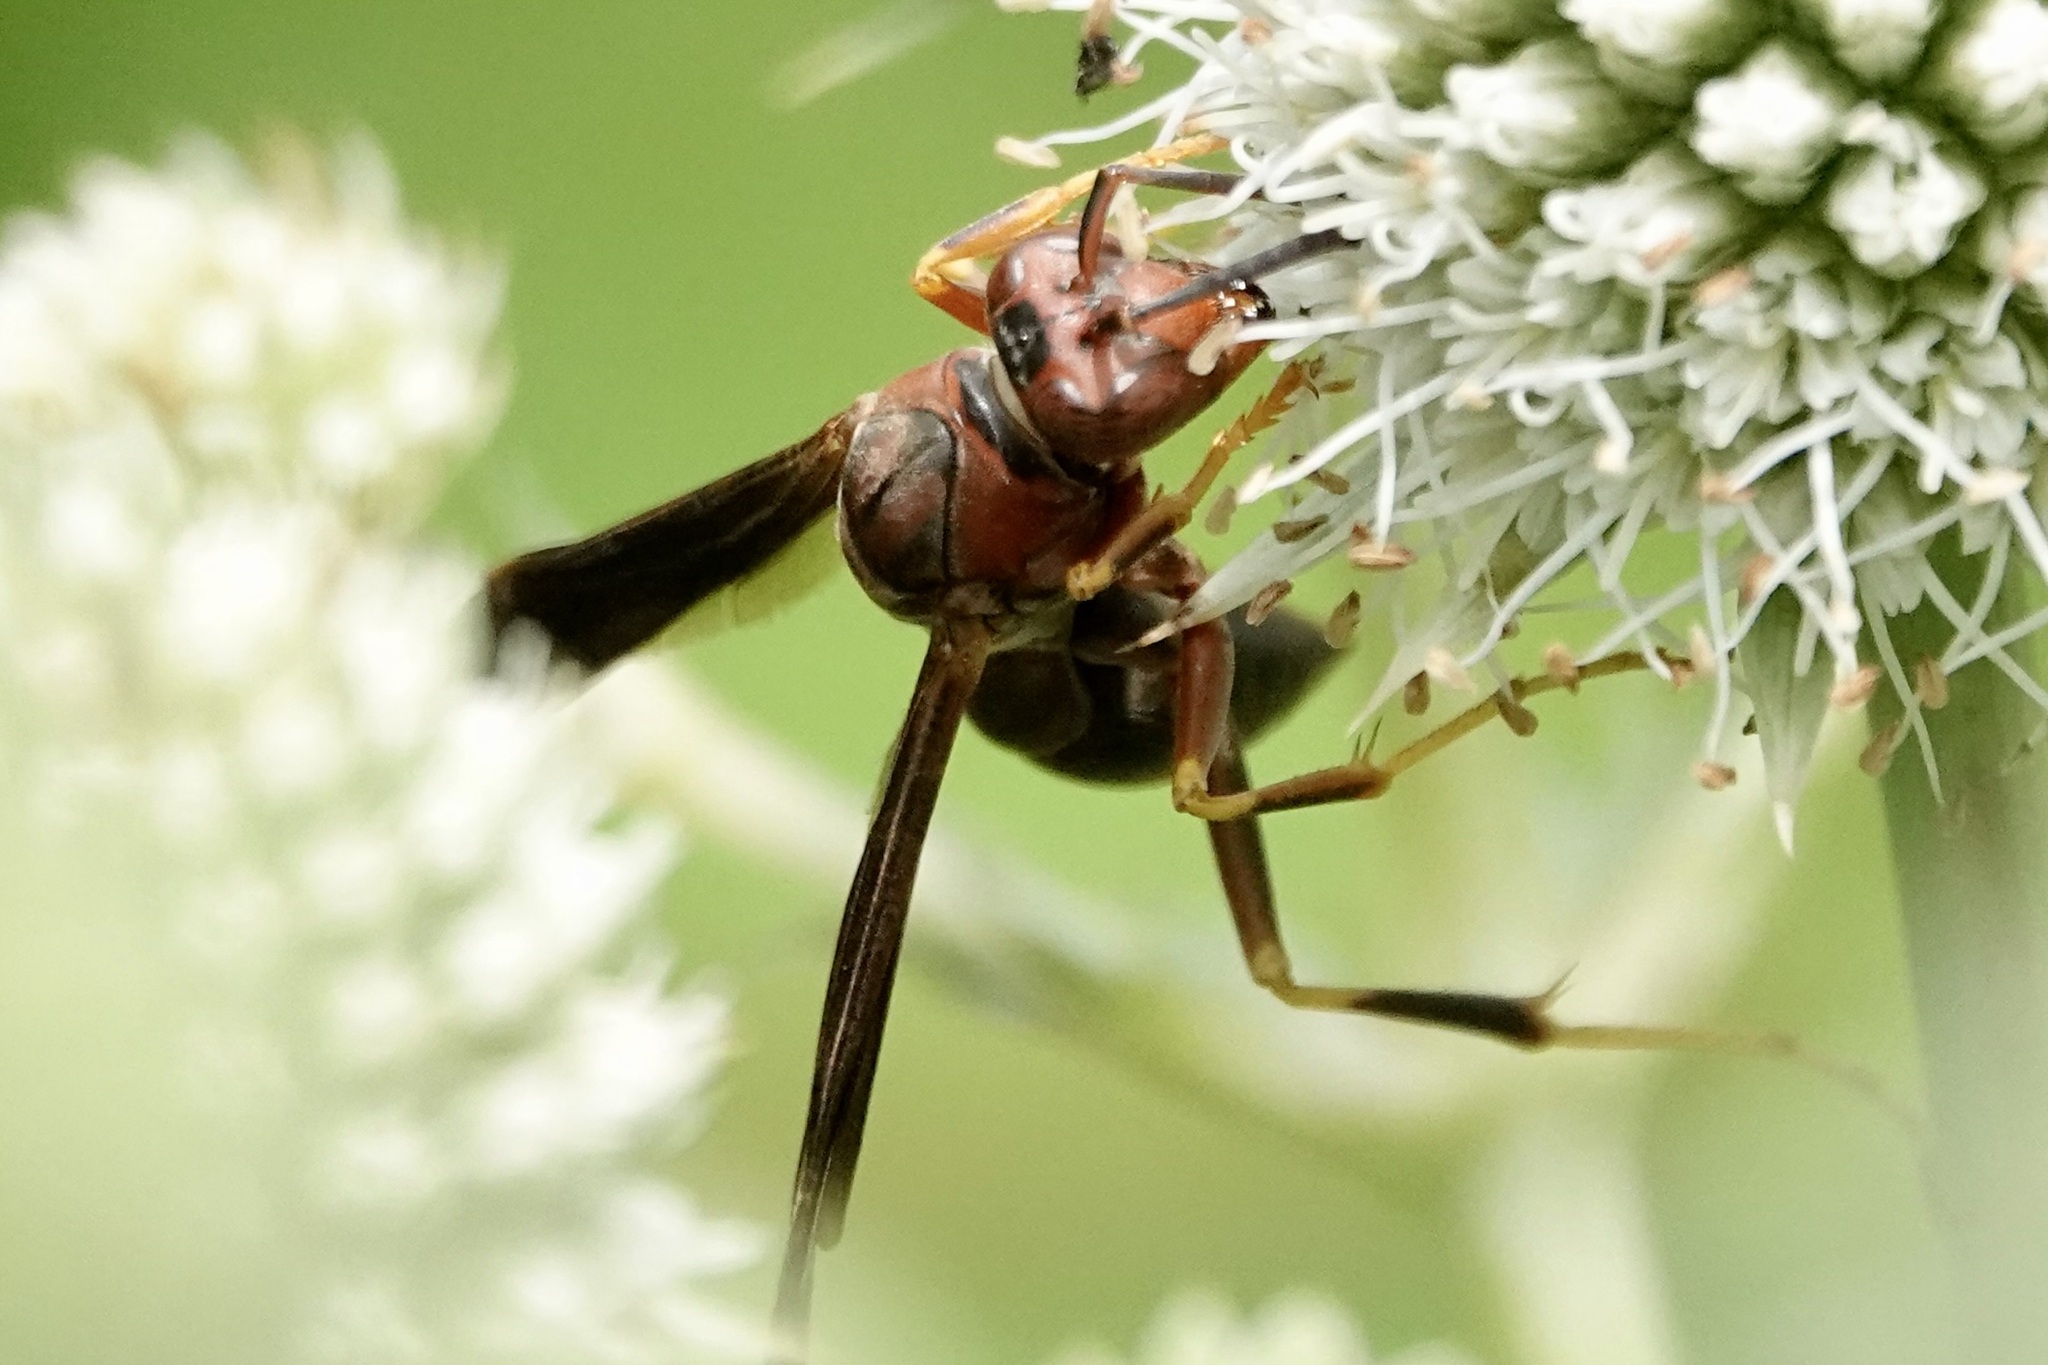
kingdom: Animalia
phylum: Arthropoda
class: Insecta
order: Hymenoptera
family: Eumenidae
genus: Polistes
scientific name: Polistes metricus
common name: Metric paper wasp
